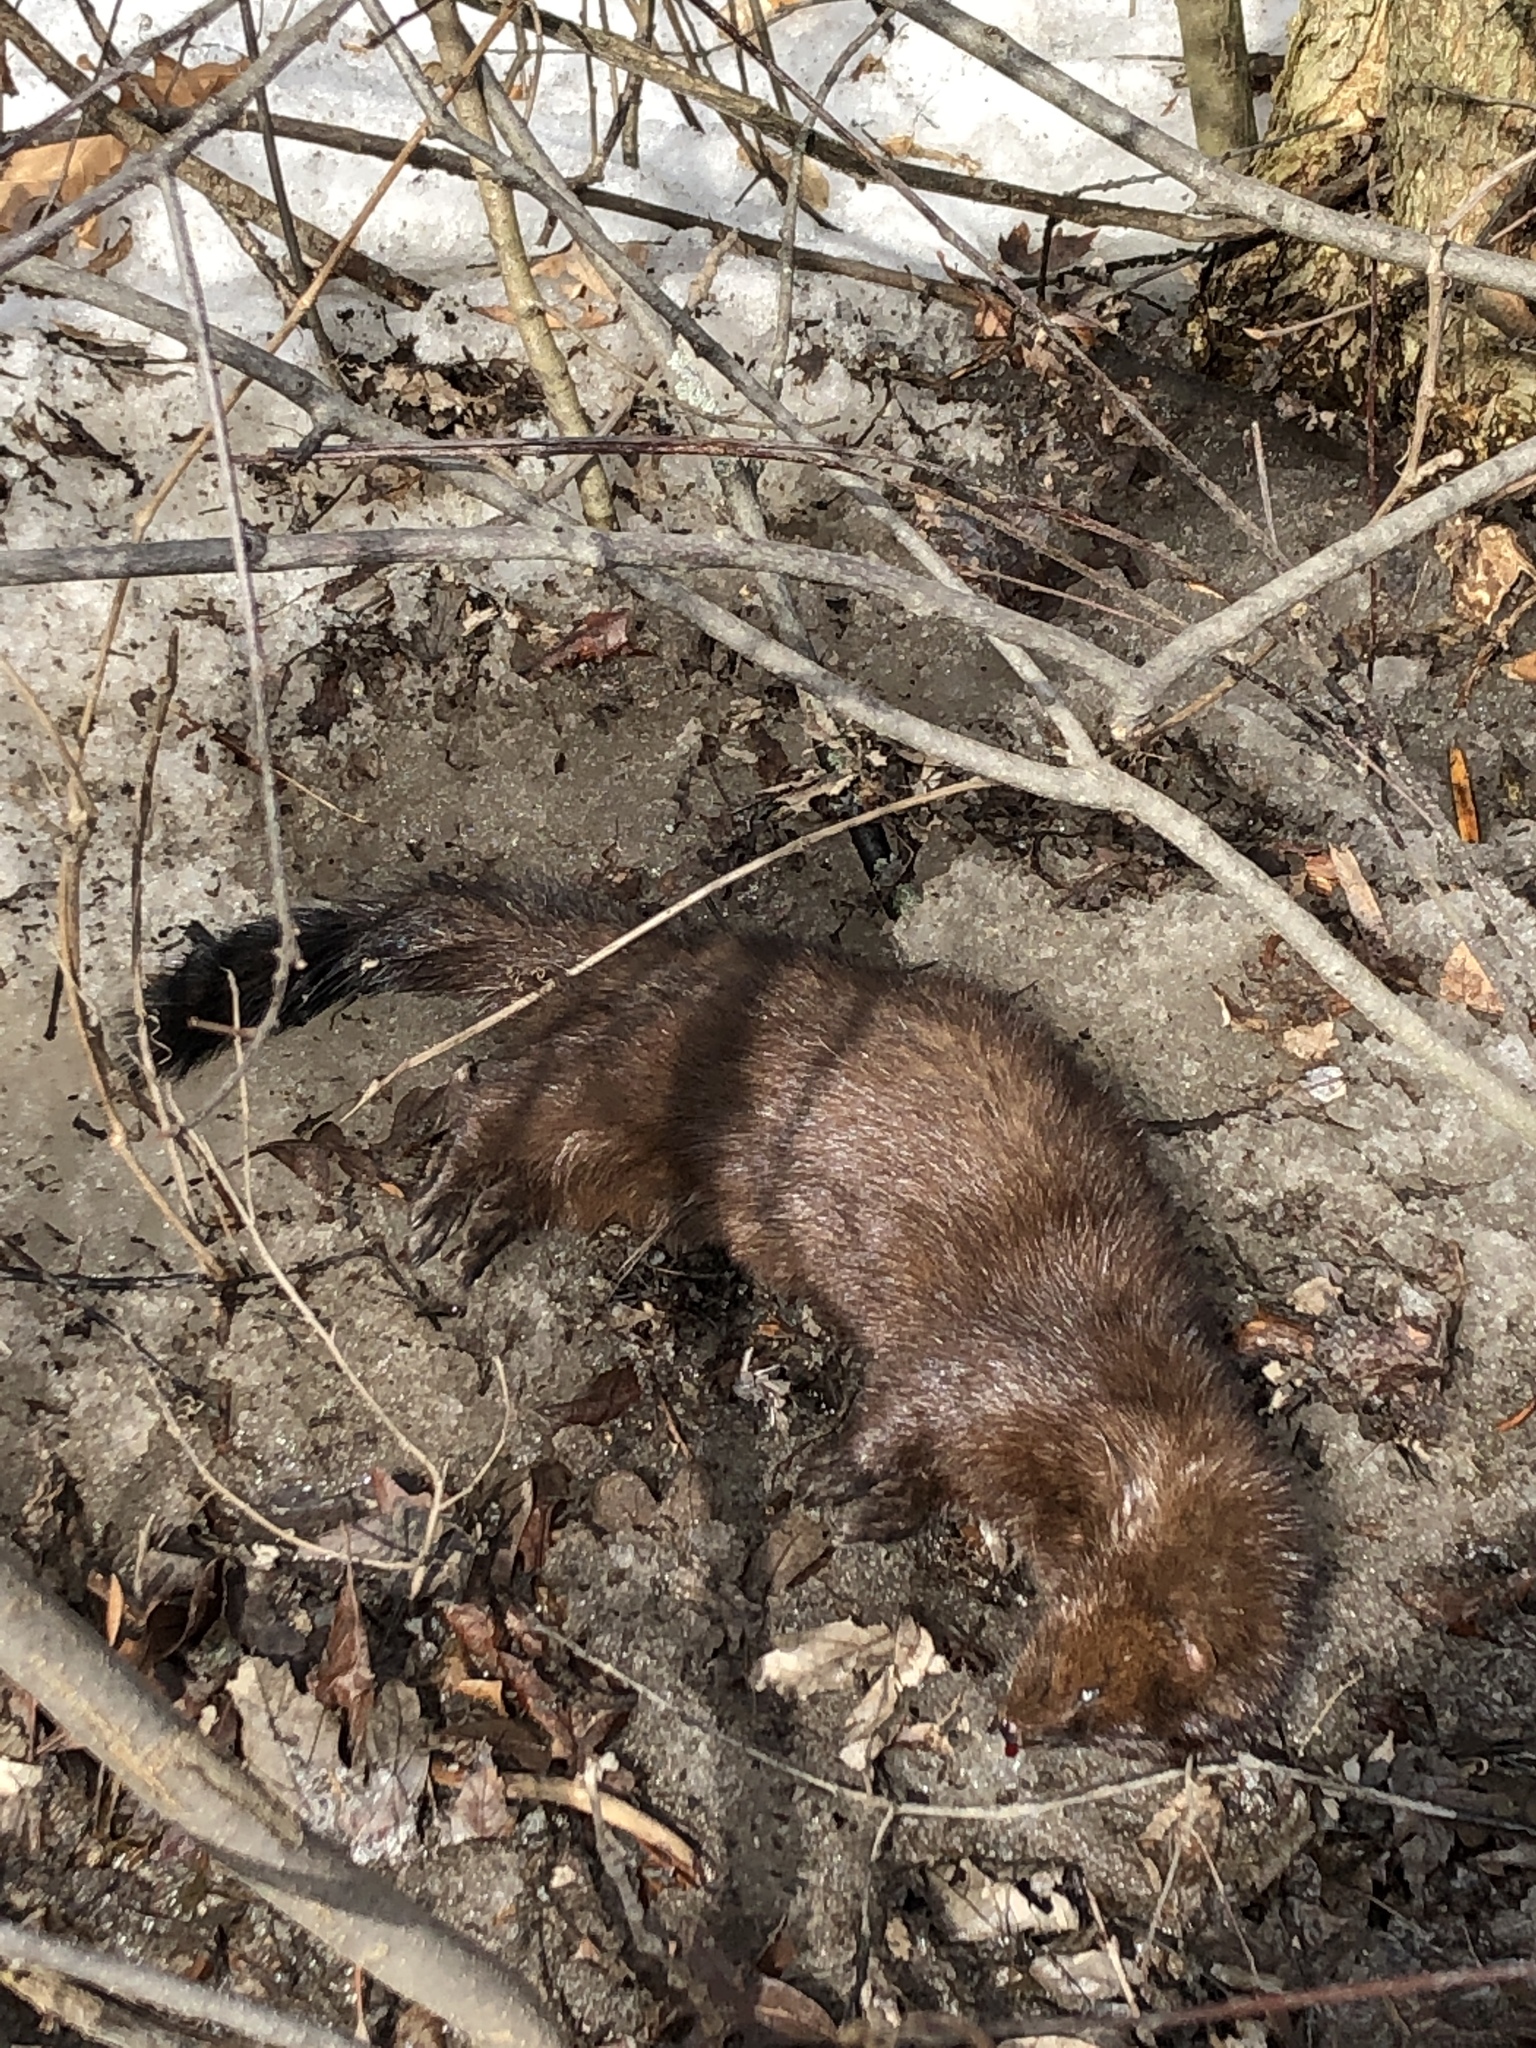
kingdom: Animalia
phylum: Chordata
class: Mammalia
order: Carnivora
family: Mustelidae
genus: Mustela
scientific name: Mustela
